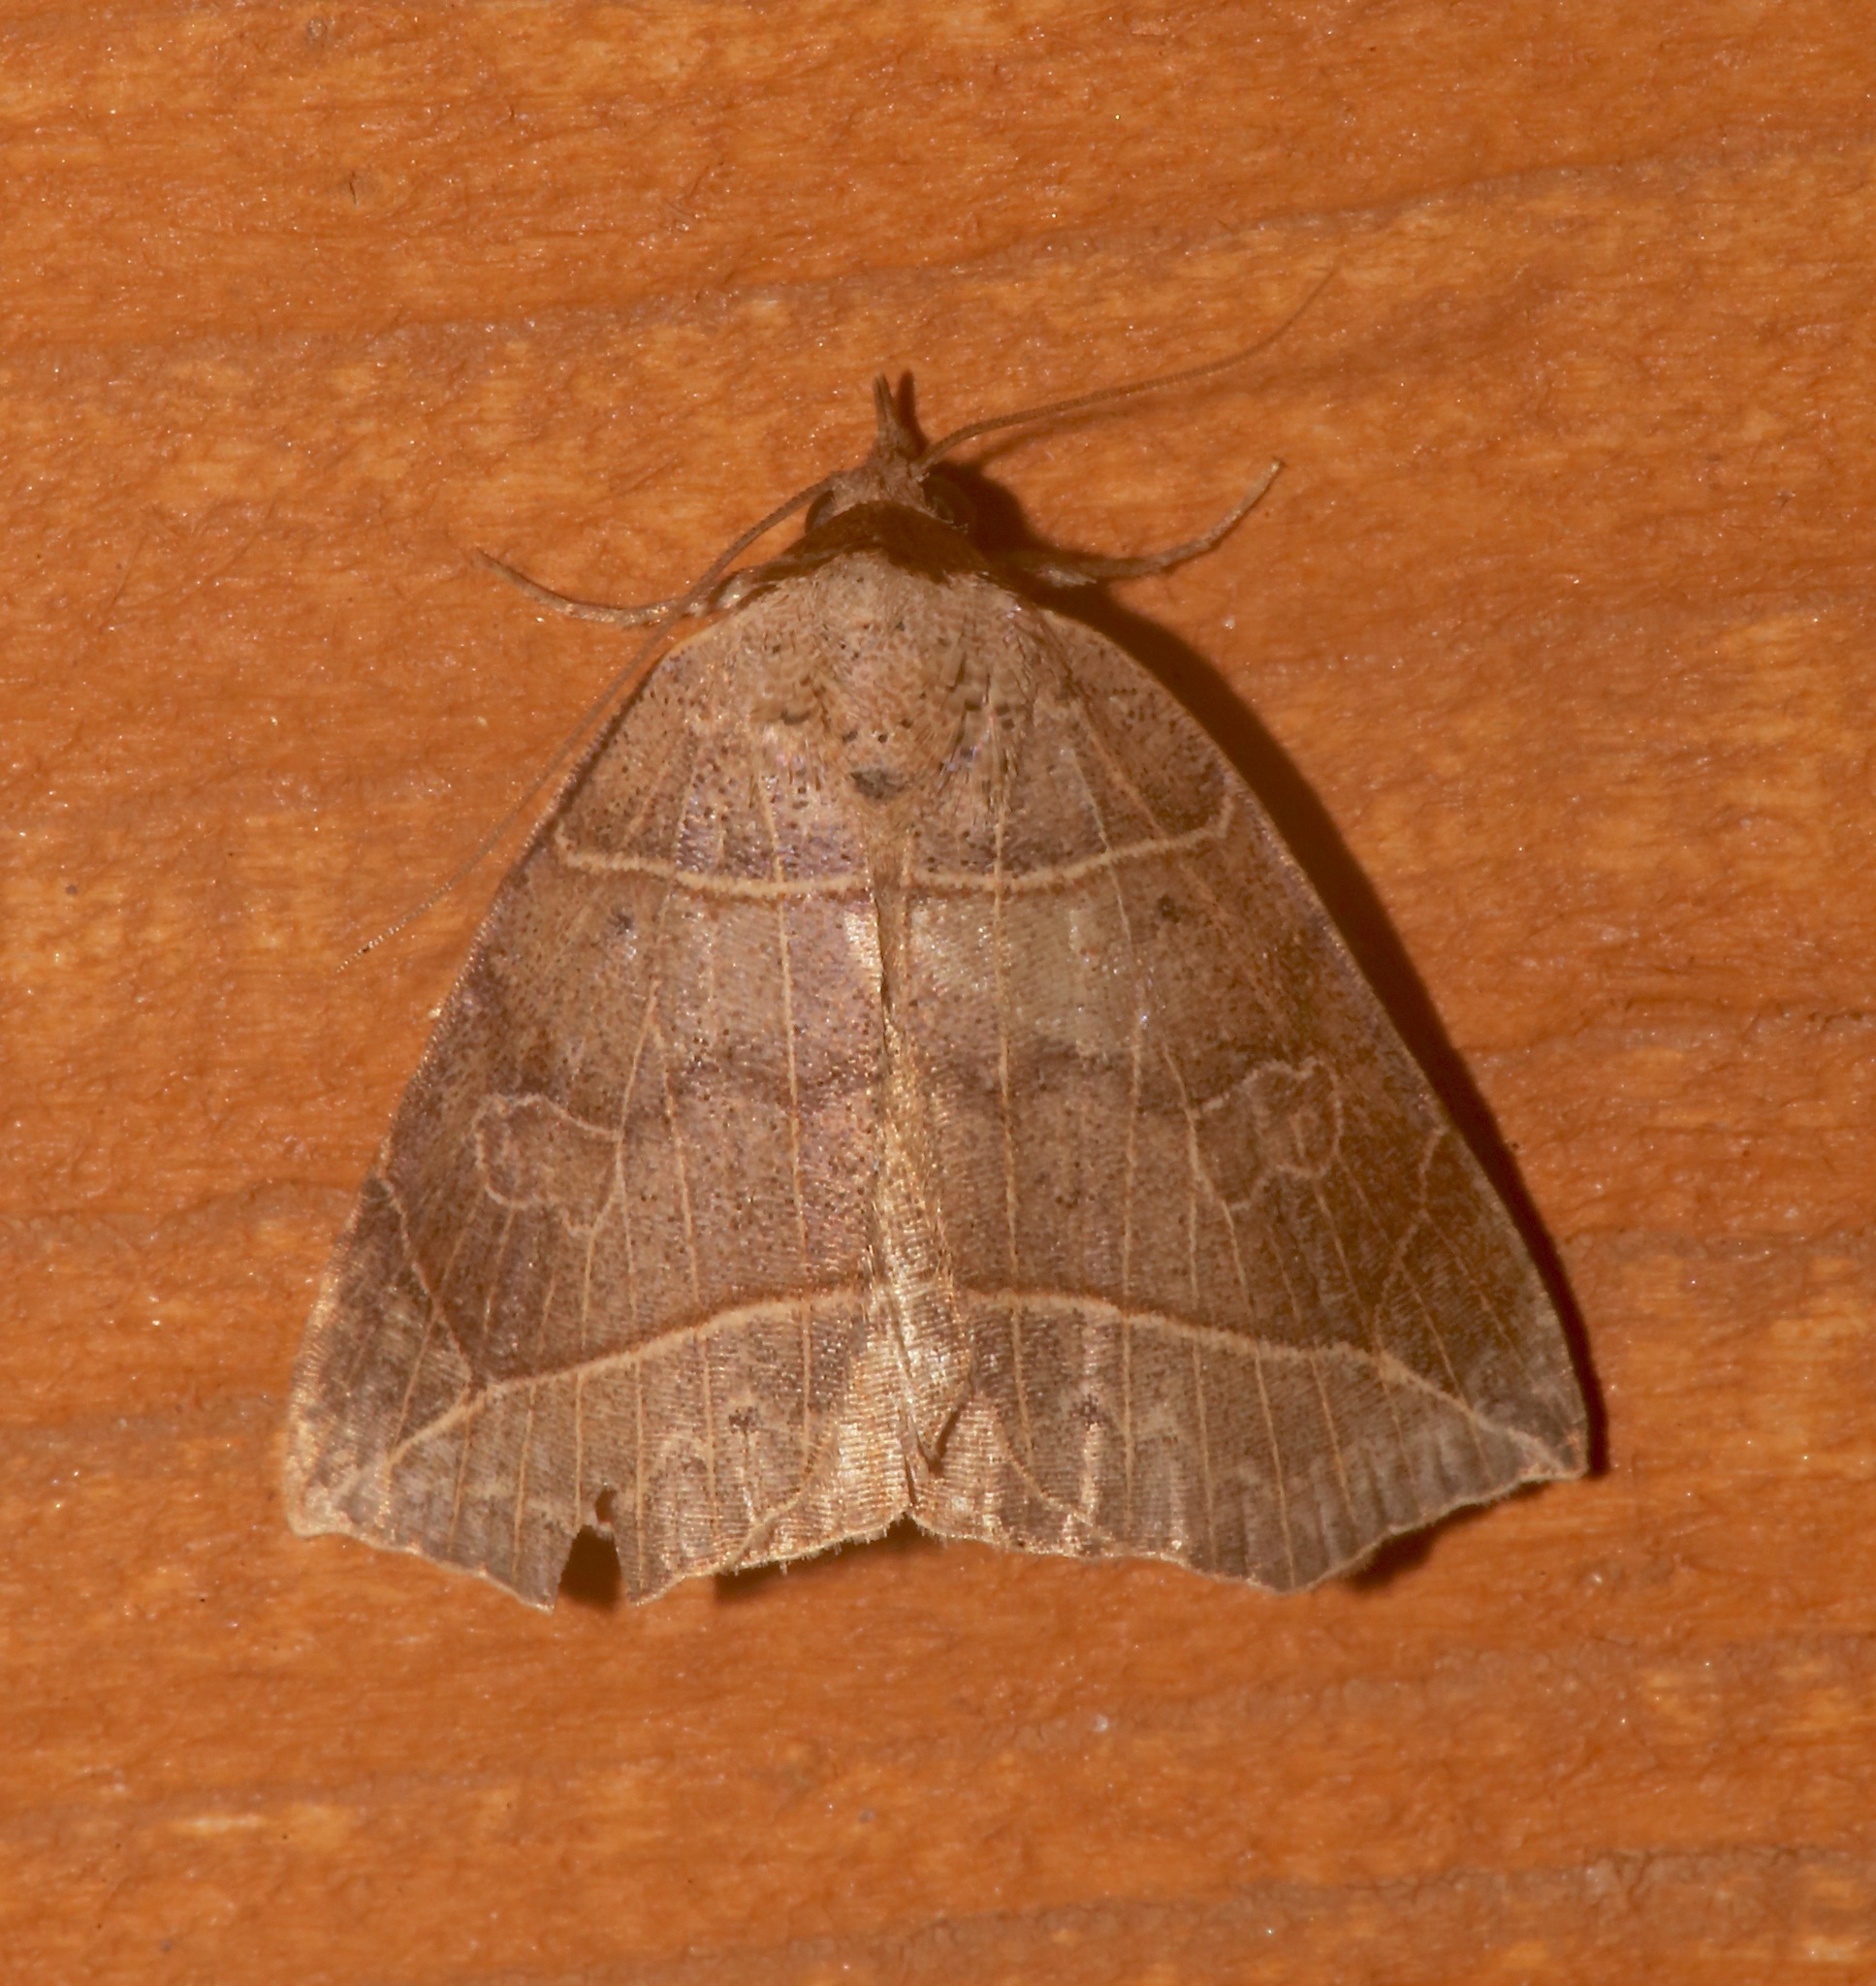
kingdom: Animalia
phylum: Arthropoda
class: Insecta
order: Lepidoptera
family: Erebidae
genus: Isogona
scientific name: Isogona tenuis
